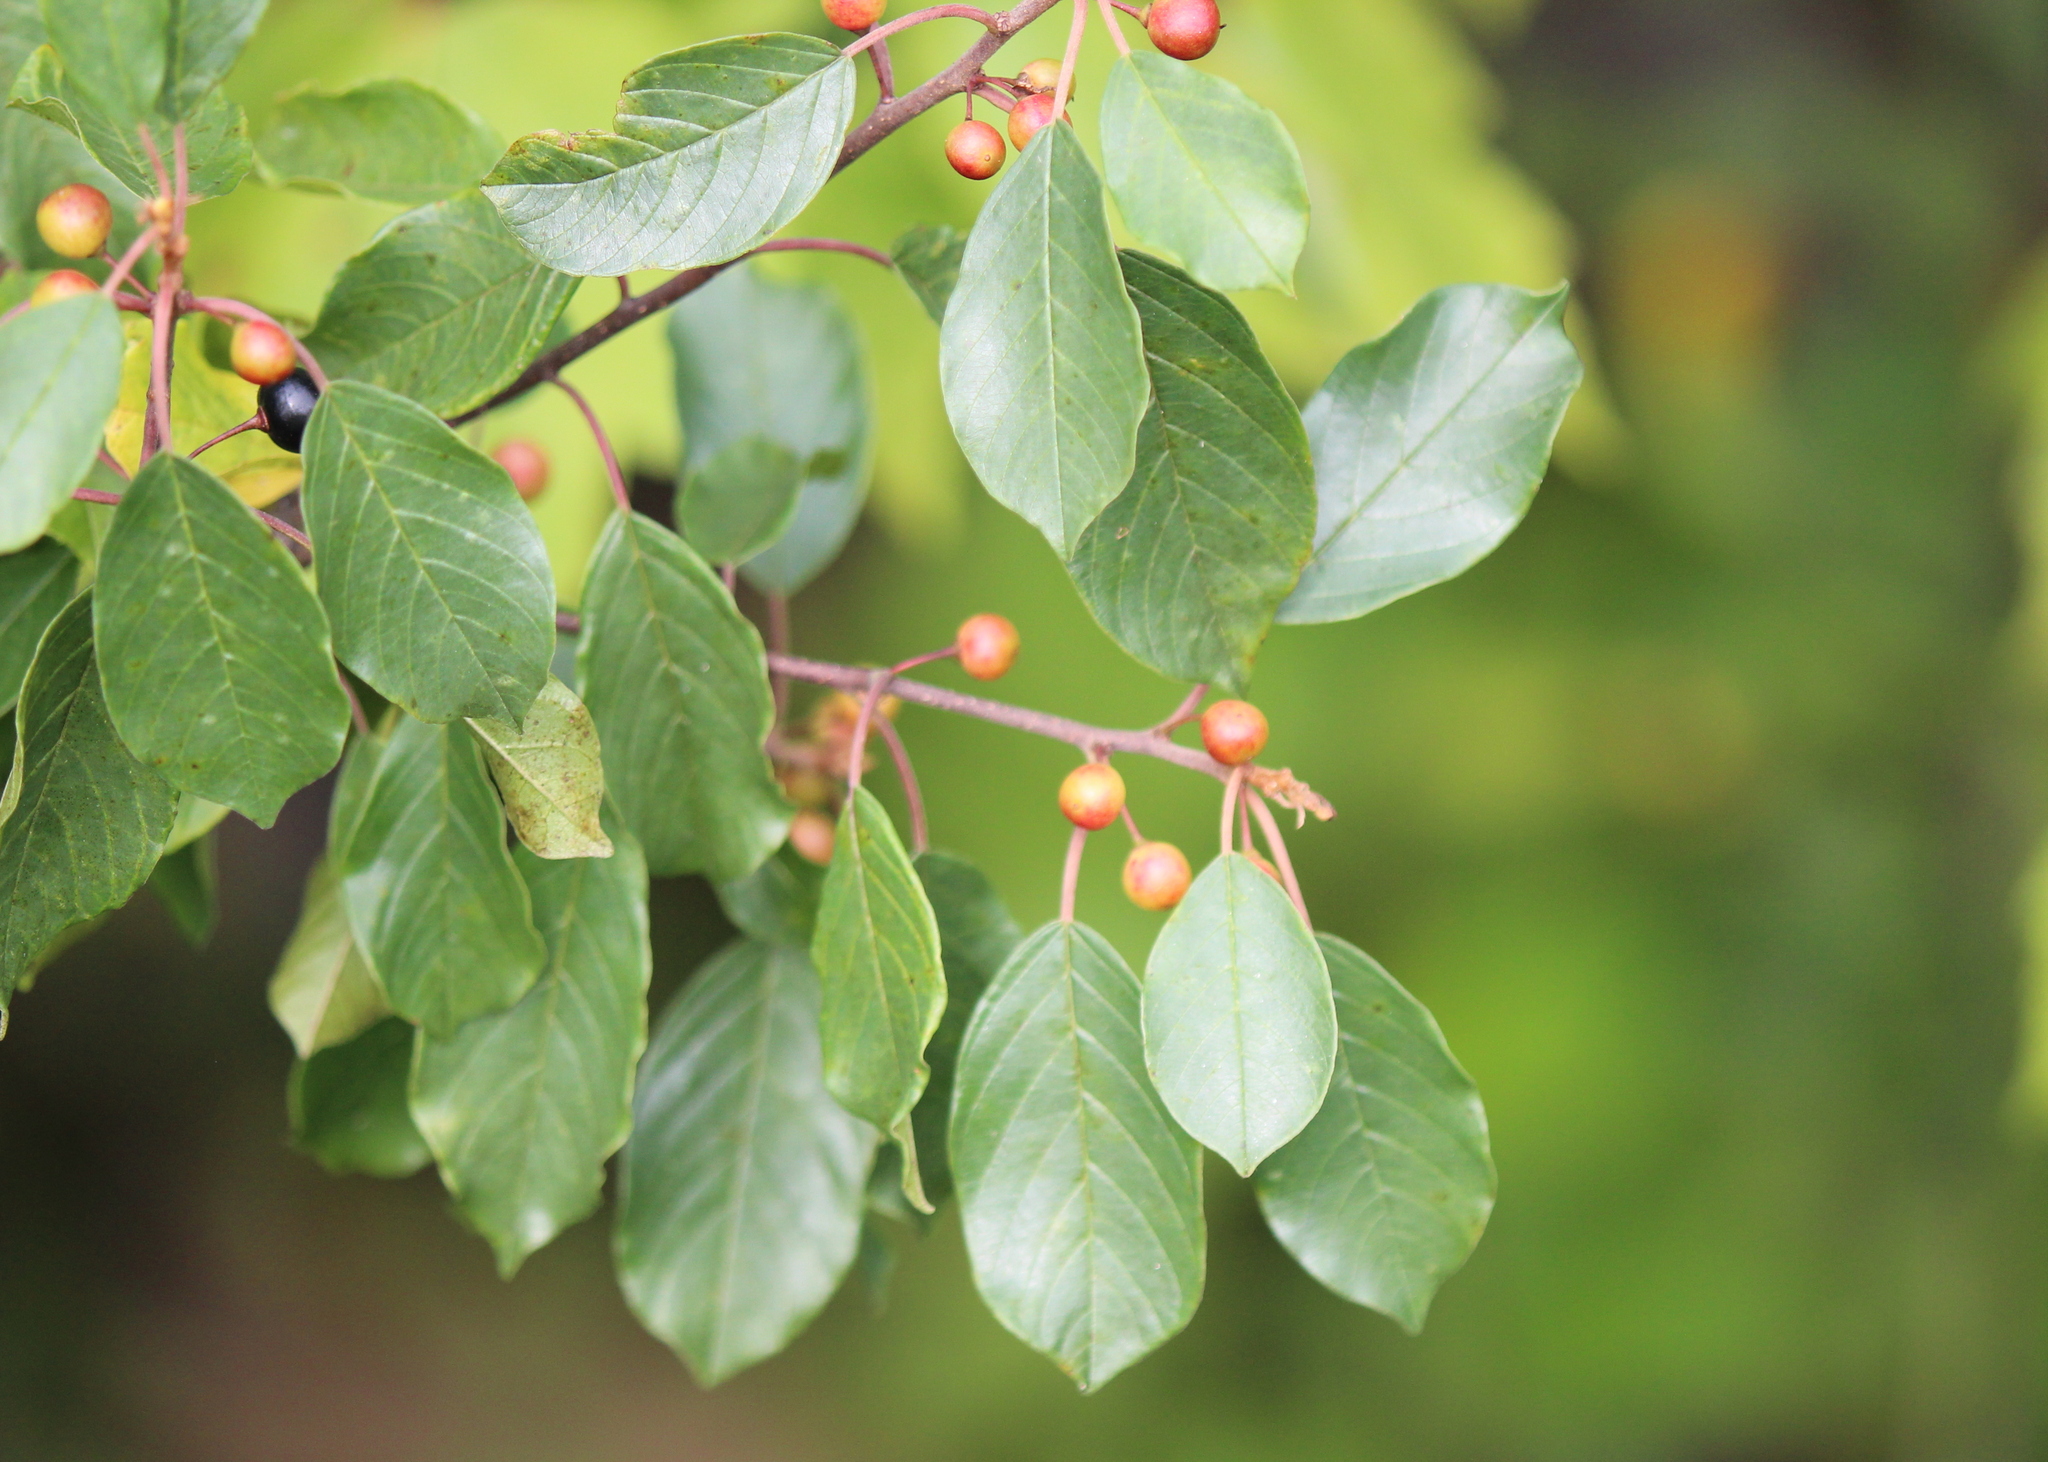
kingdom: Plantae
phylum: Tracheophyta
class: Magnoliopsida
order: Rosales
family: Rhamnaceae
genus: Frangula
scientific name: Frangula alnus
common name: Alder buckthorn
